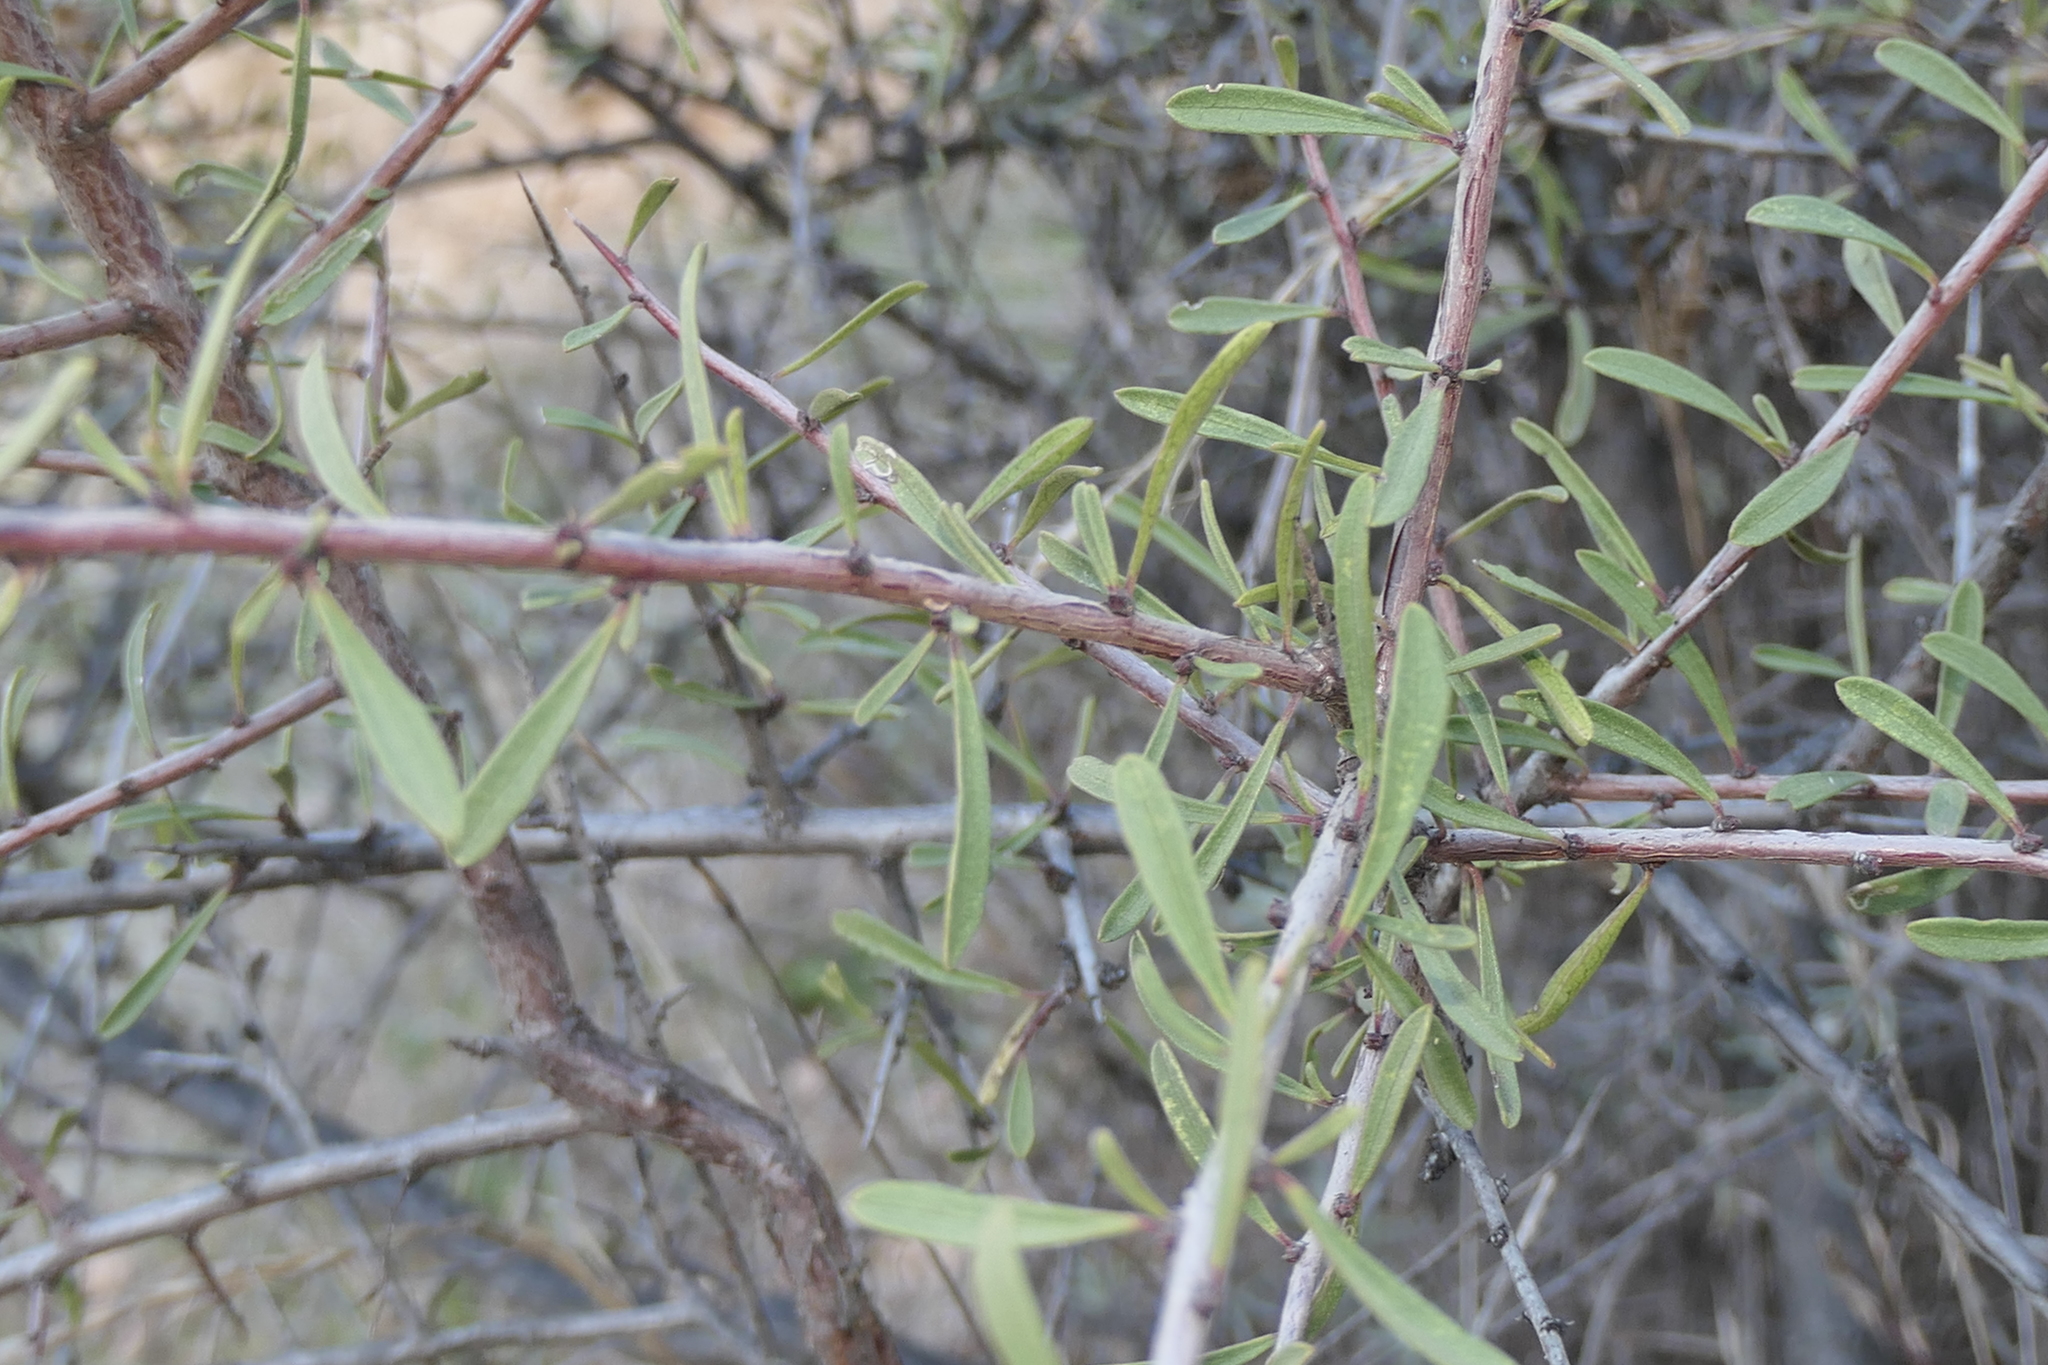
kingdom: Plantae
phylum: Tracheophyta
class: Magnoliopsida
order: Rosales
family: Rhamnaceae
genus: Rhamnus
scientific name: Rhamnus lycioides
